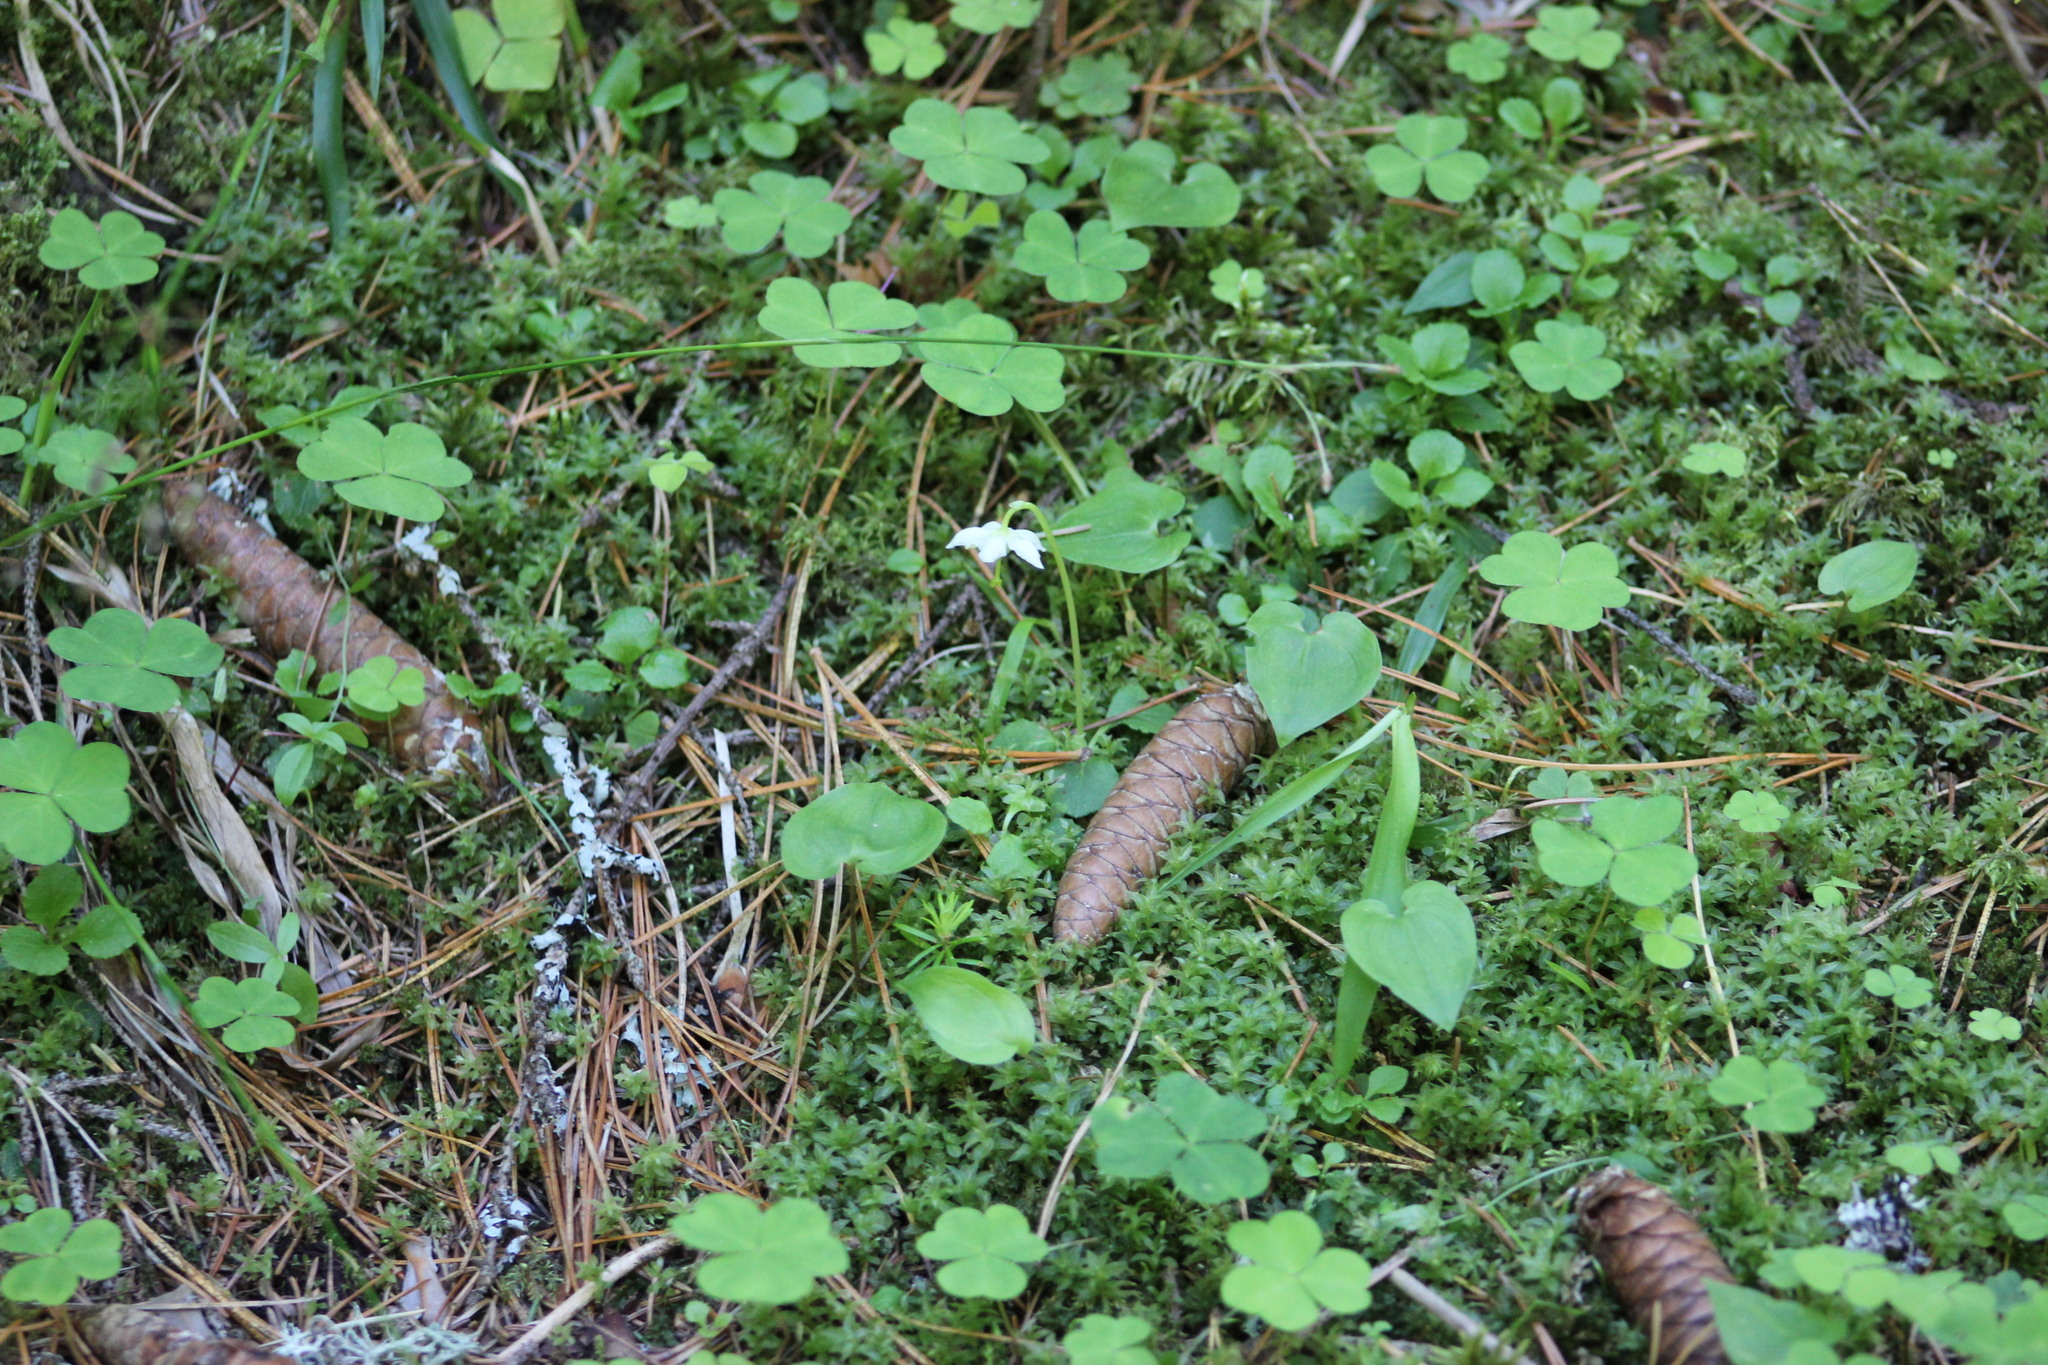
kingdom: Plantae
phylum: Tracheophyta
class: Magnoliopsida
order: Oxalidales
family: Oxalidaceae
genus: Oxalis
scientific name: Oxalis acetosella
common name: Wood-sorrel
